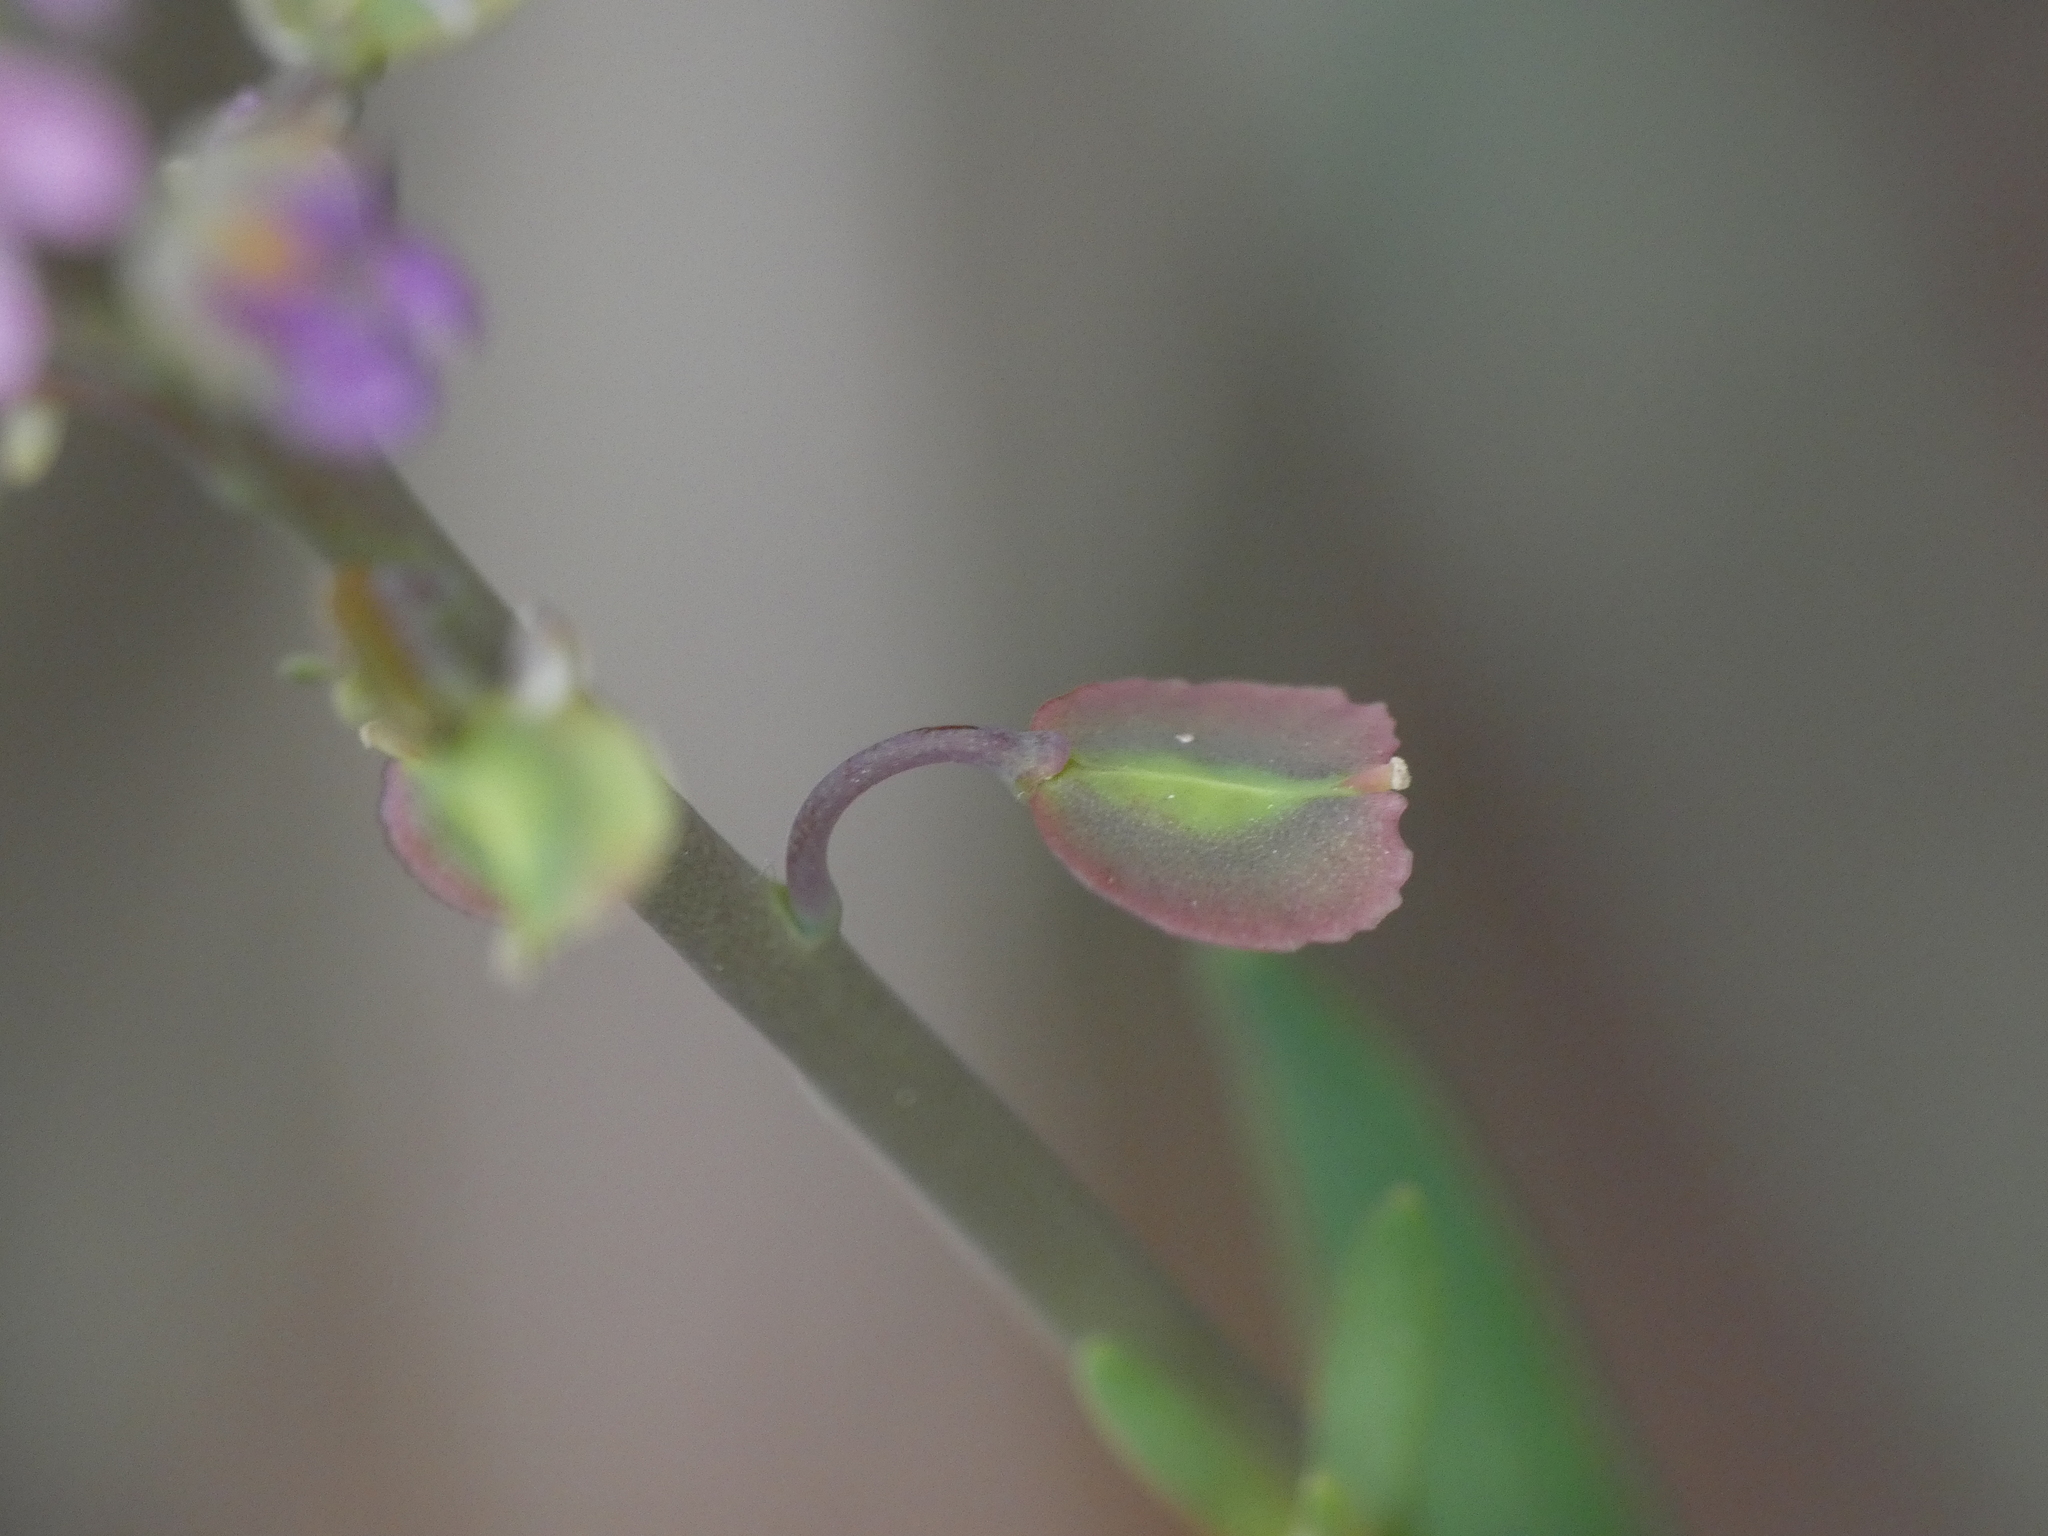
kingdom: Plantae
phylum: Tracheophyta
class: Magnoliopsida
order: Brassicales
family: Brassicaceae
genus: Aethionema
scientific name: Aethionema saxatile
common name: Burnt candytuft
